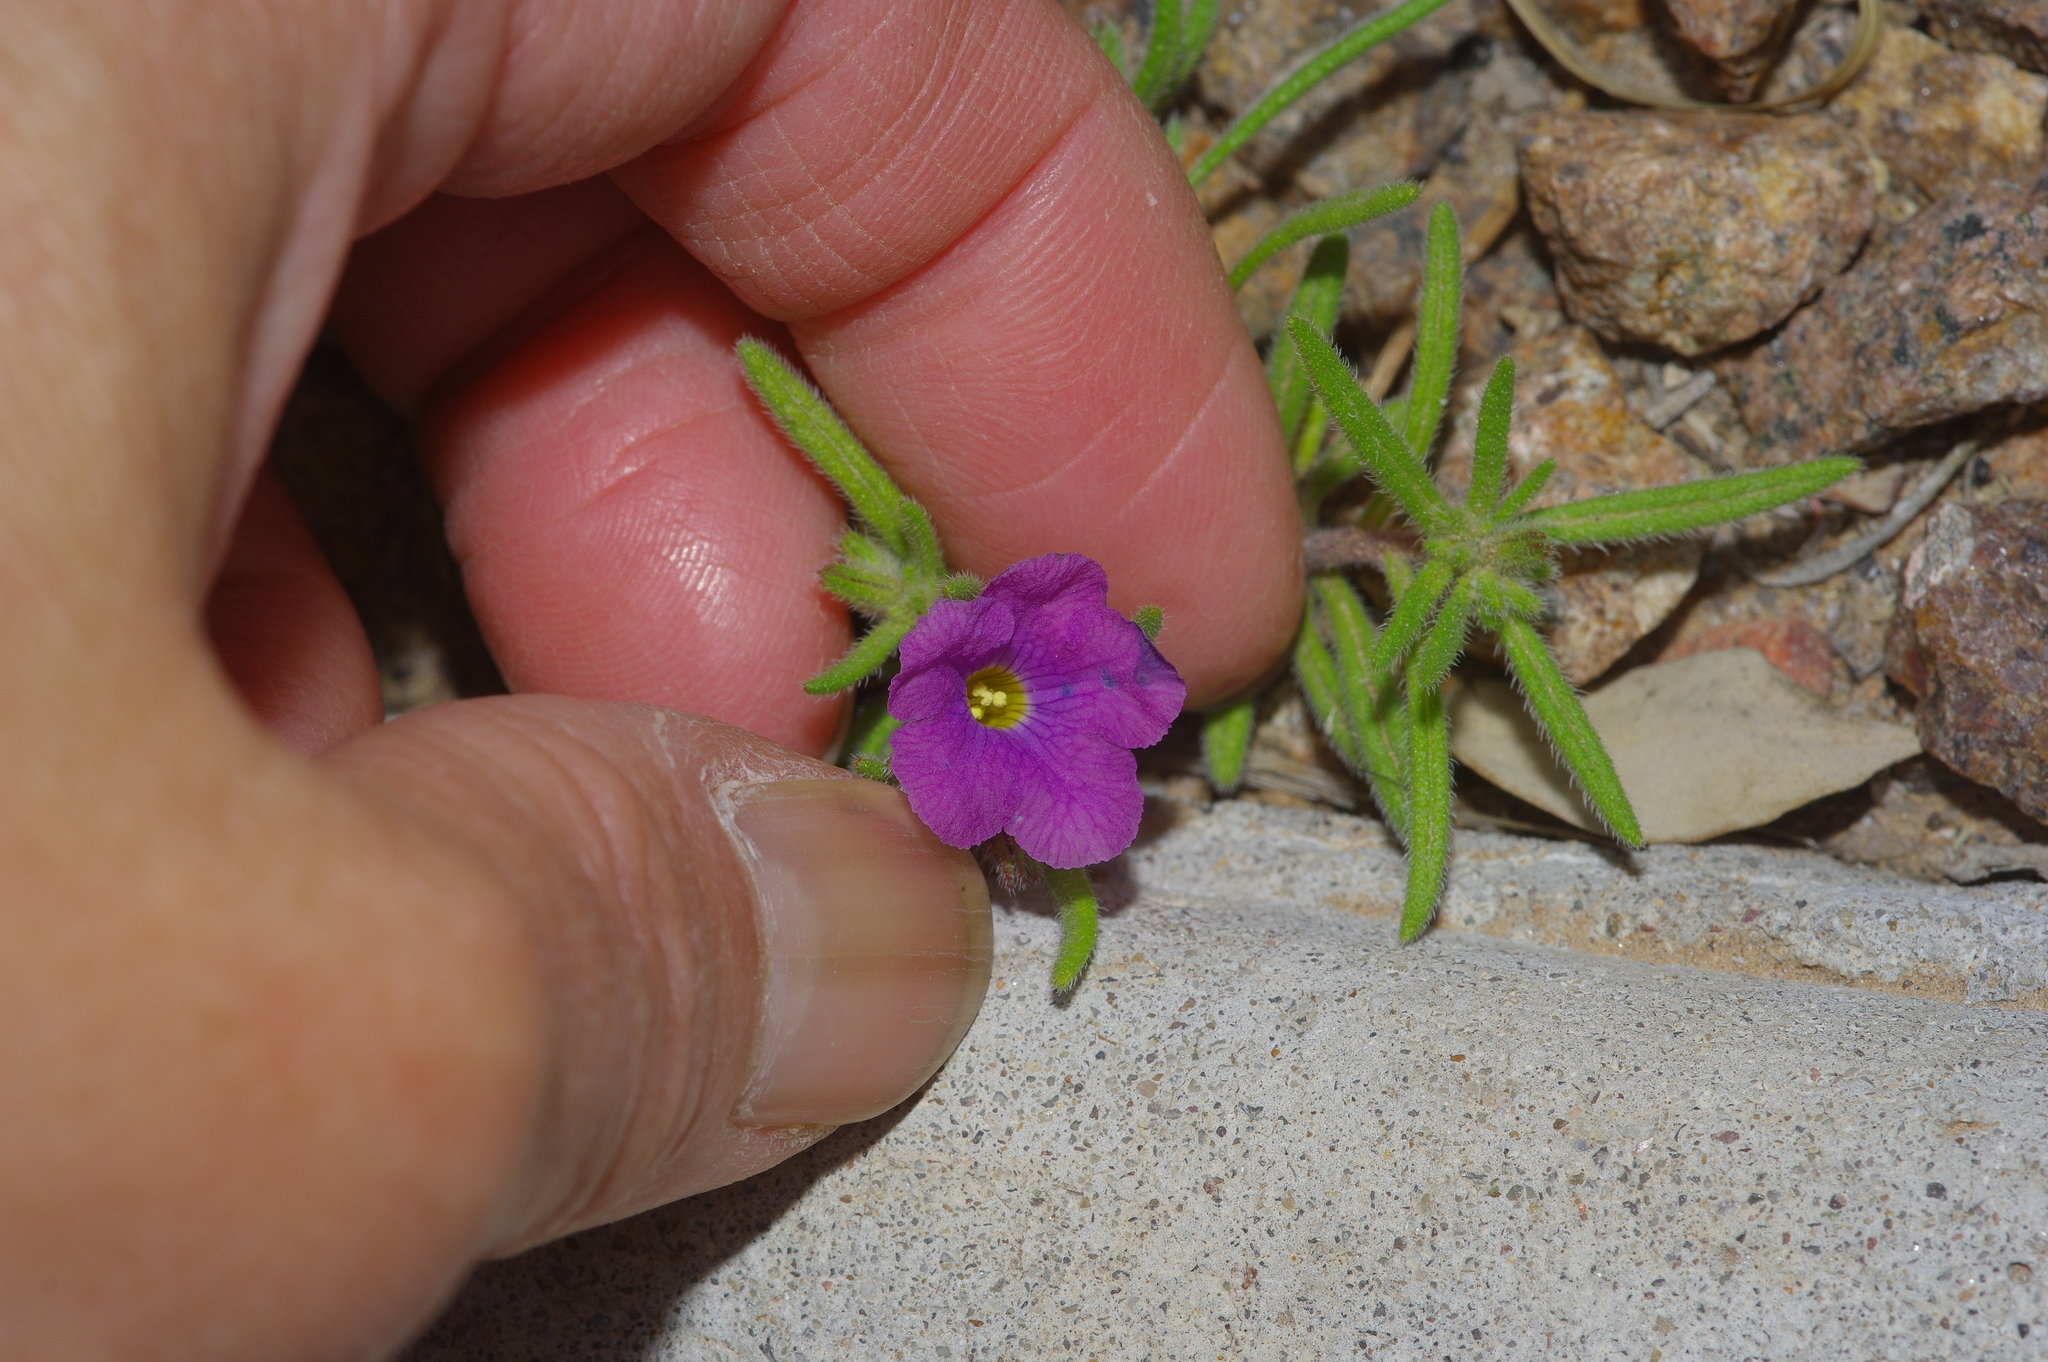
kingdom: Plantae
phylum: Tracheophyta
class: Magnoliopsida
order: Boraginales
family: Namaceae
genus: Nama
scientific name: Nama hispida
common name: Bristly nama
